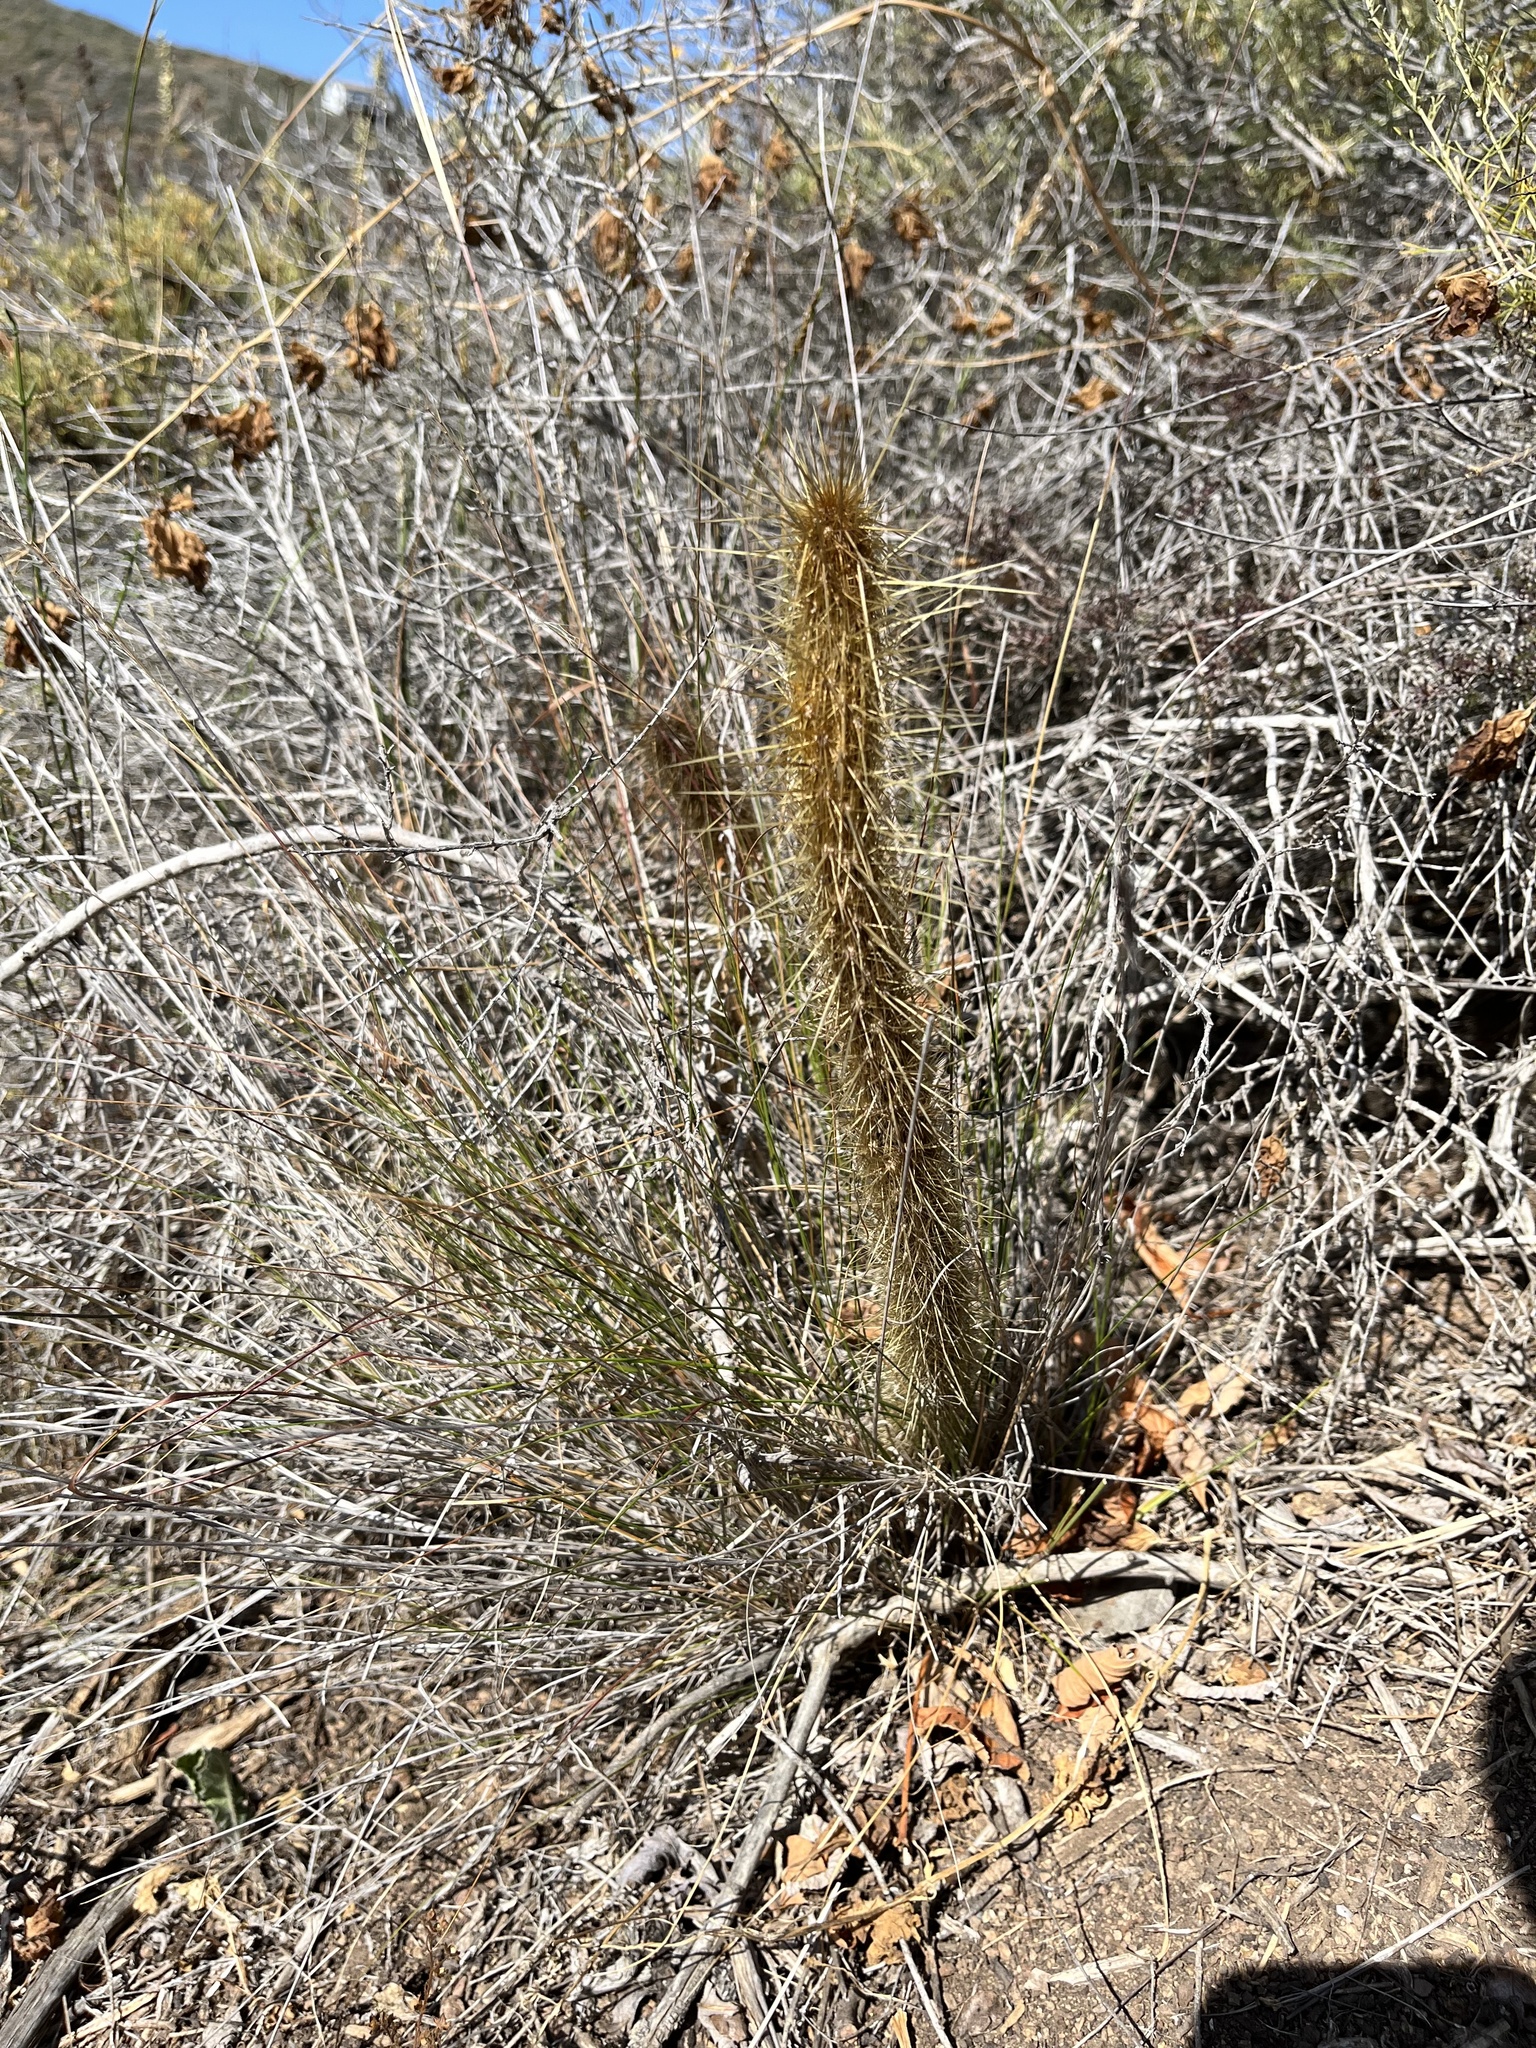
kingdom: Plantae
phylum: Tracheophyta
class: Magnoliopsida
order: Caryophyllales
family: Cactaceae
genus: Bergerocactus
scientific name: Bergerocactus emoryi
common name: Golden snakecactus
